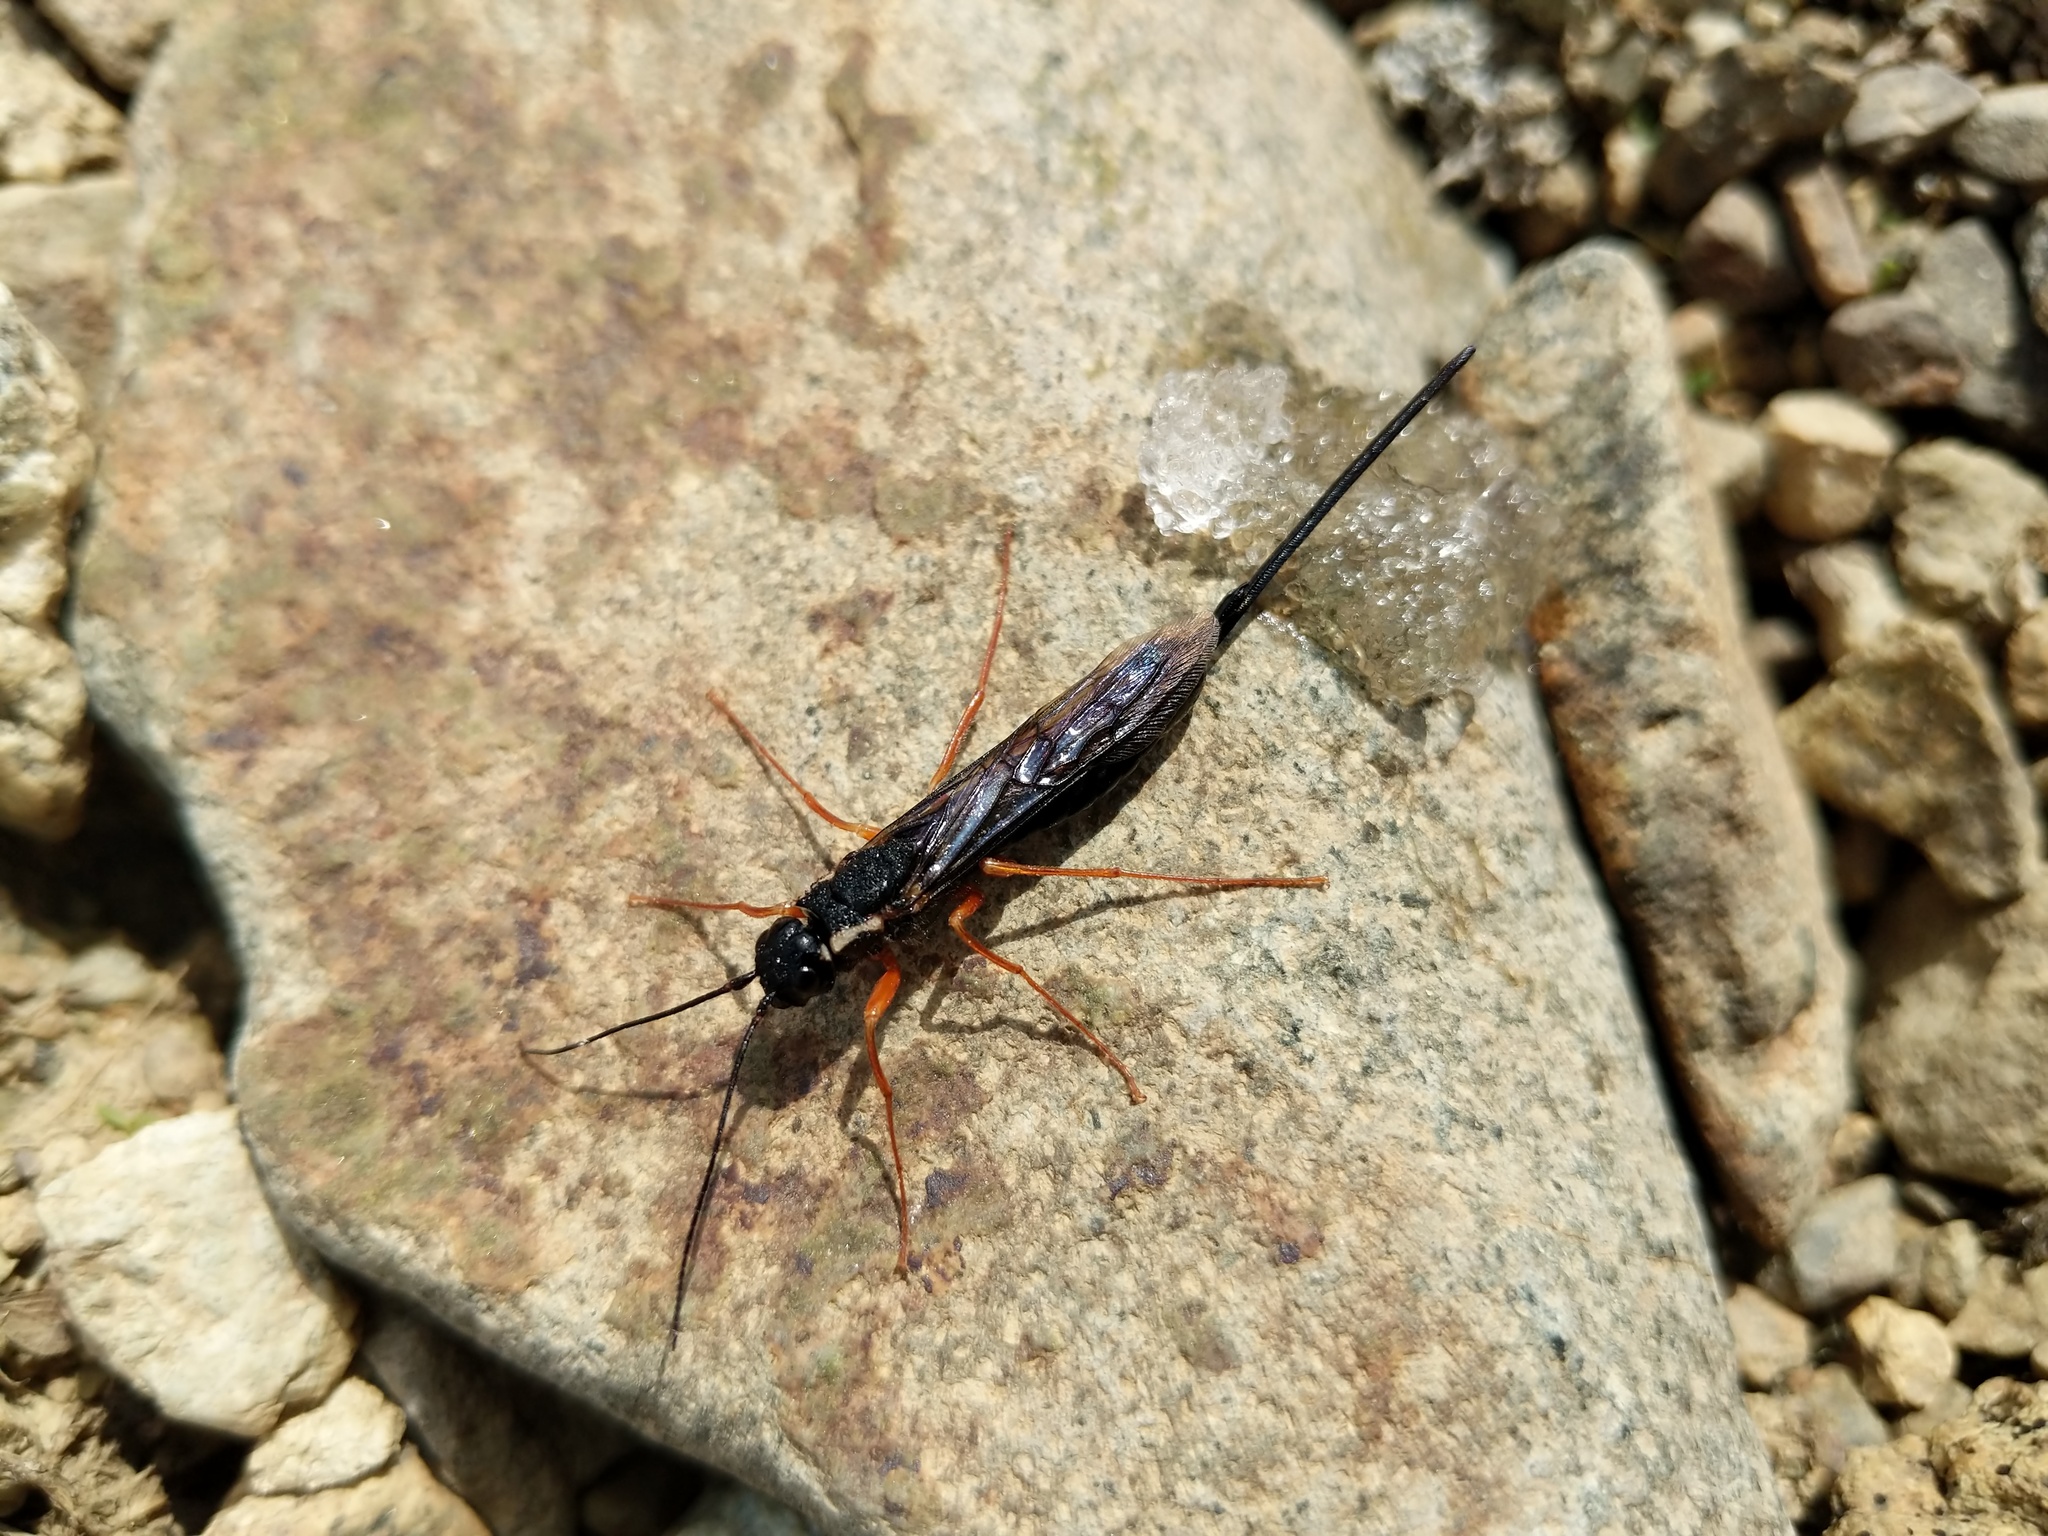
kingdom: Animalia
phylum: Arthropoda
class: Insecta
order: Hymenoptera
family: Siricidae
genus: Xeris
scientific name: Xeris melancholicus
